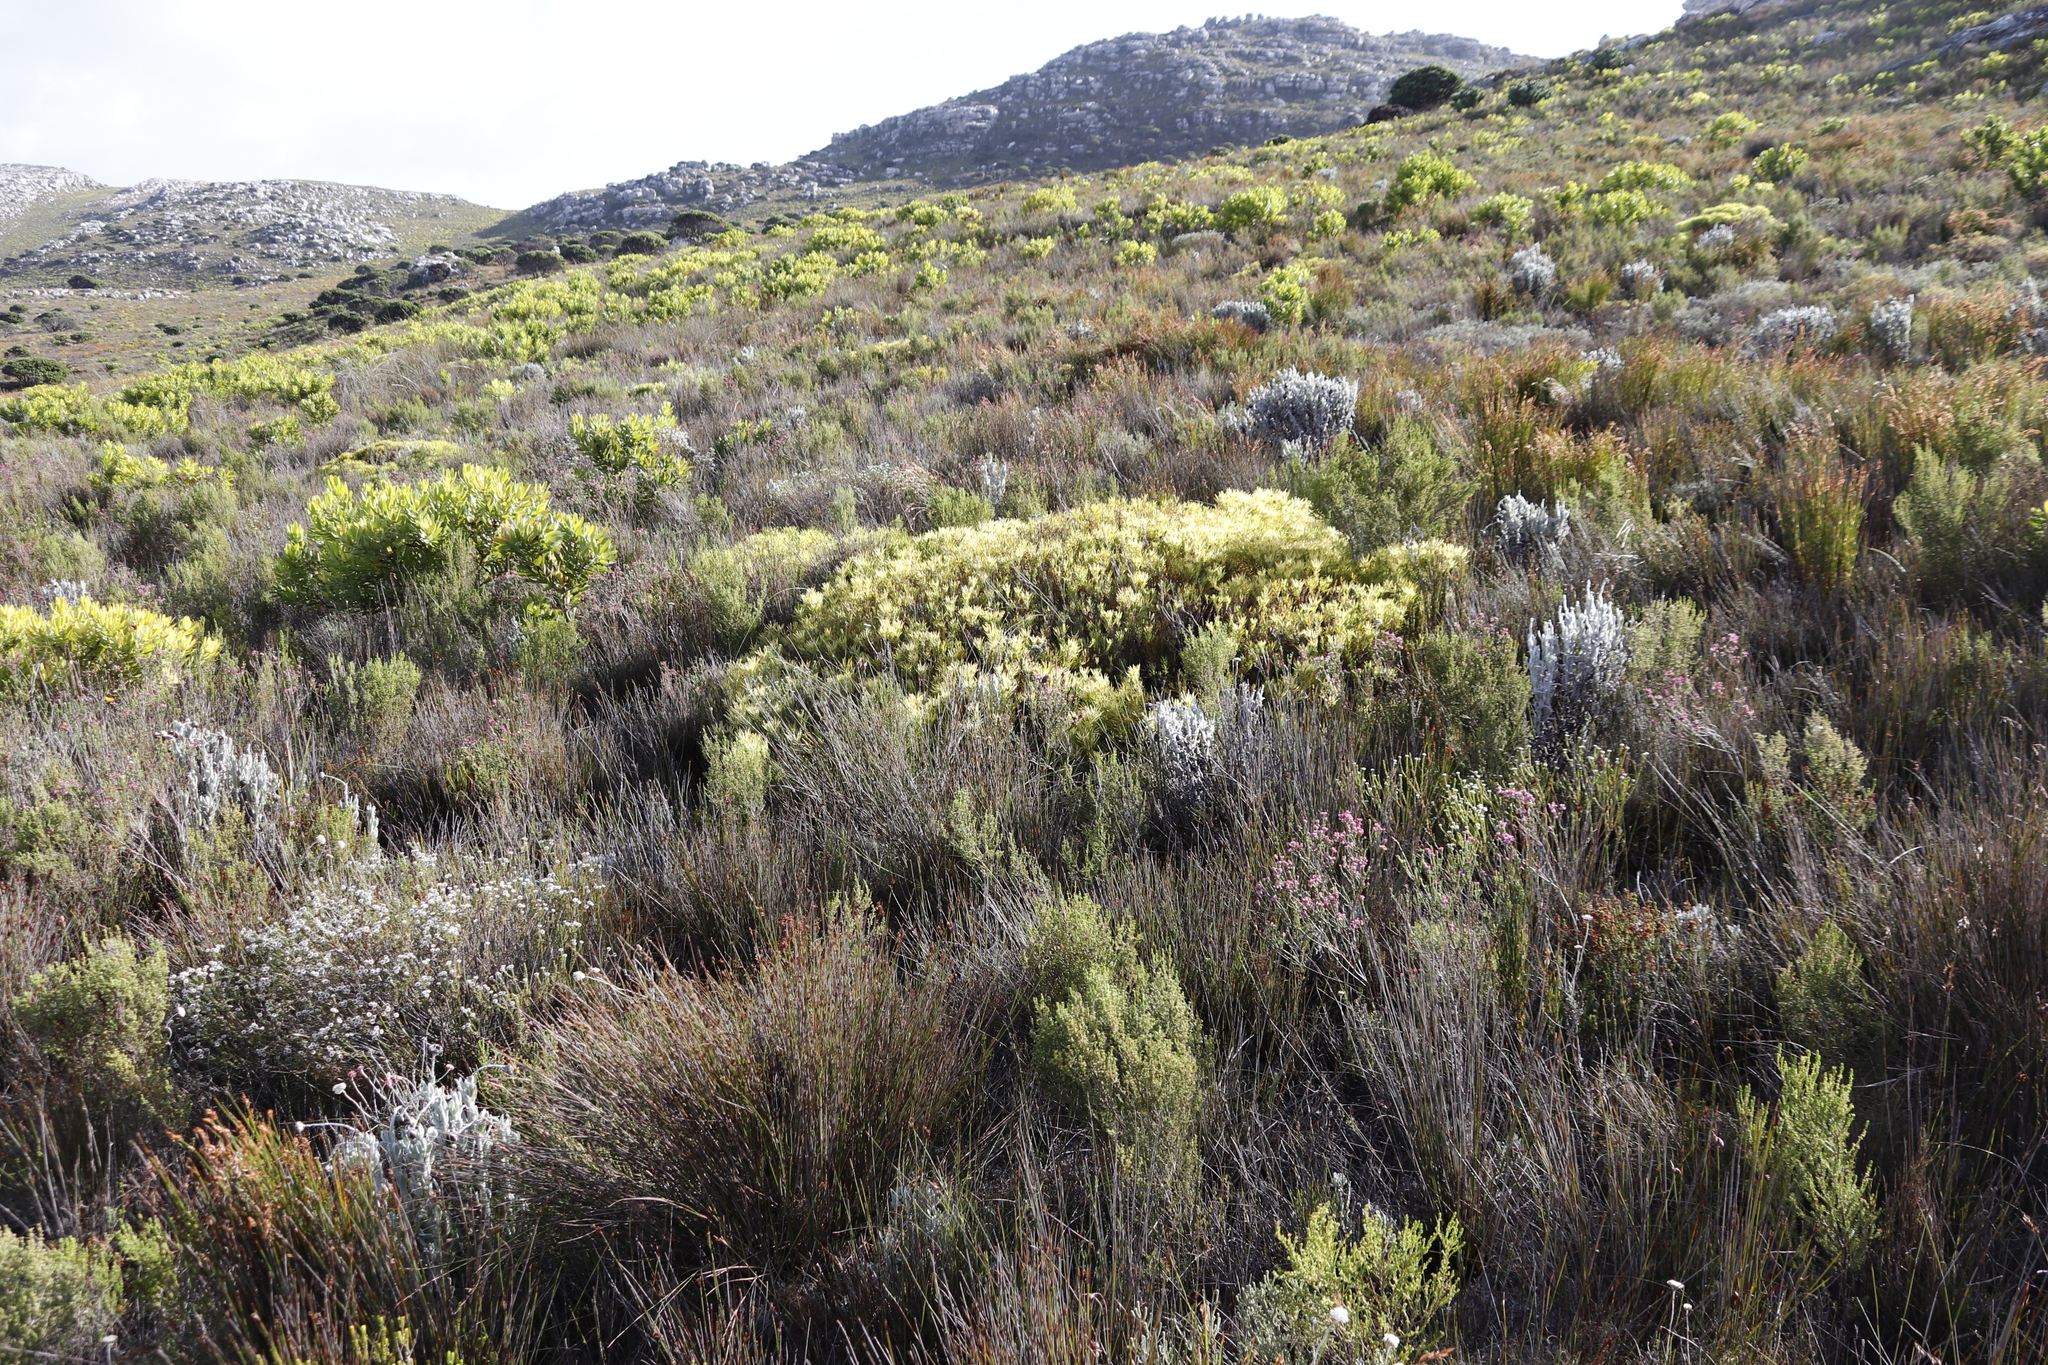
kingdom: Plantae
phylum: Tracheophyta
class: Magnoliopsida
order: Proteales
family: Proteaceae
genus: Leucadendron
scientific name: Leucadendron salignum
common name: Common sunshine conebush
